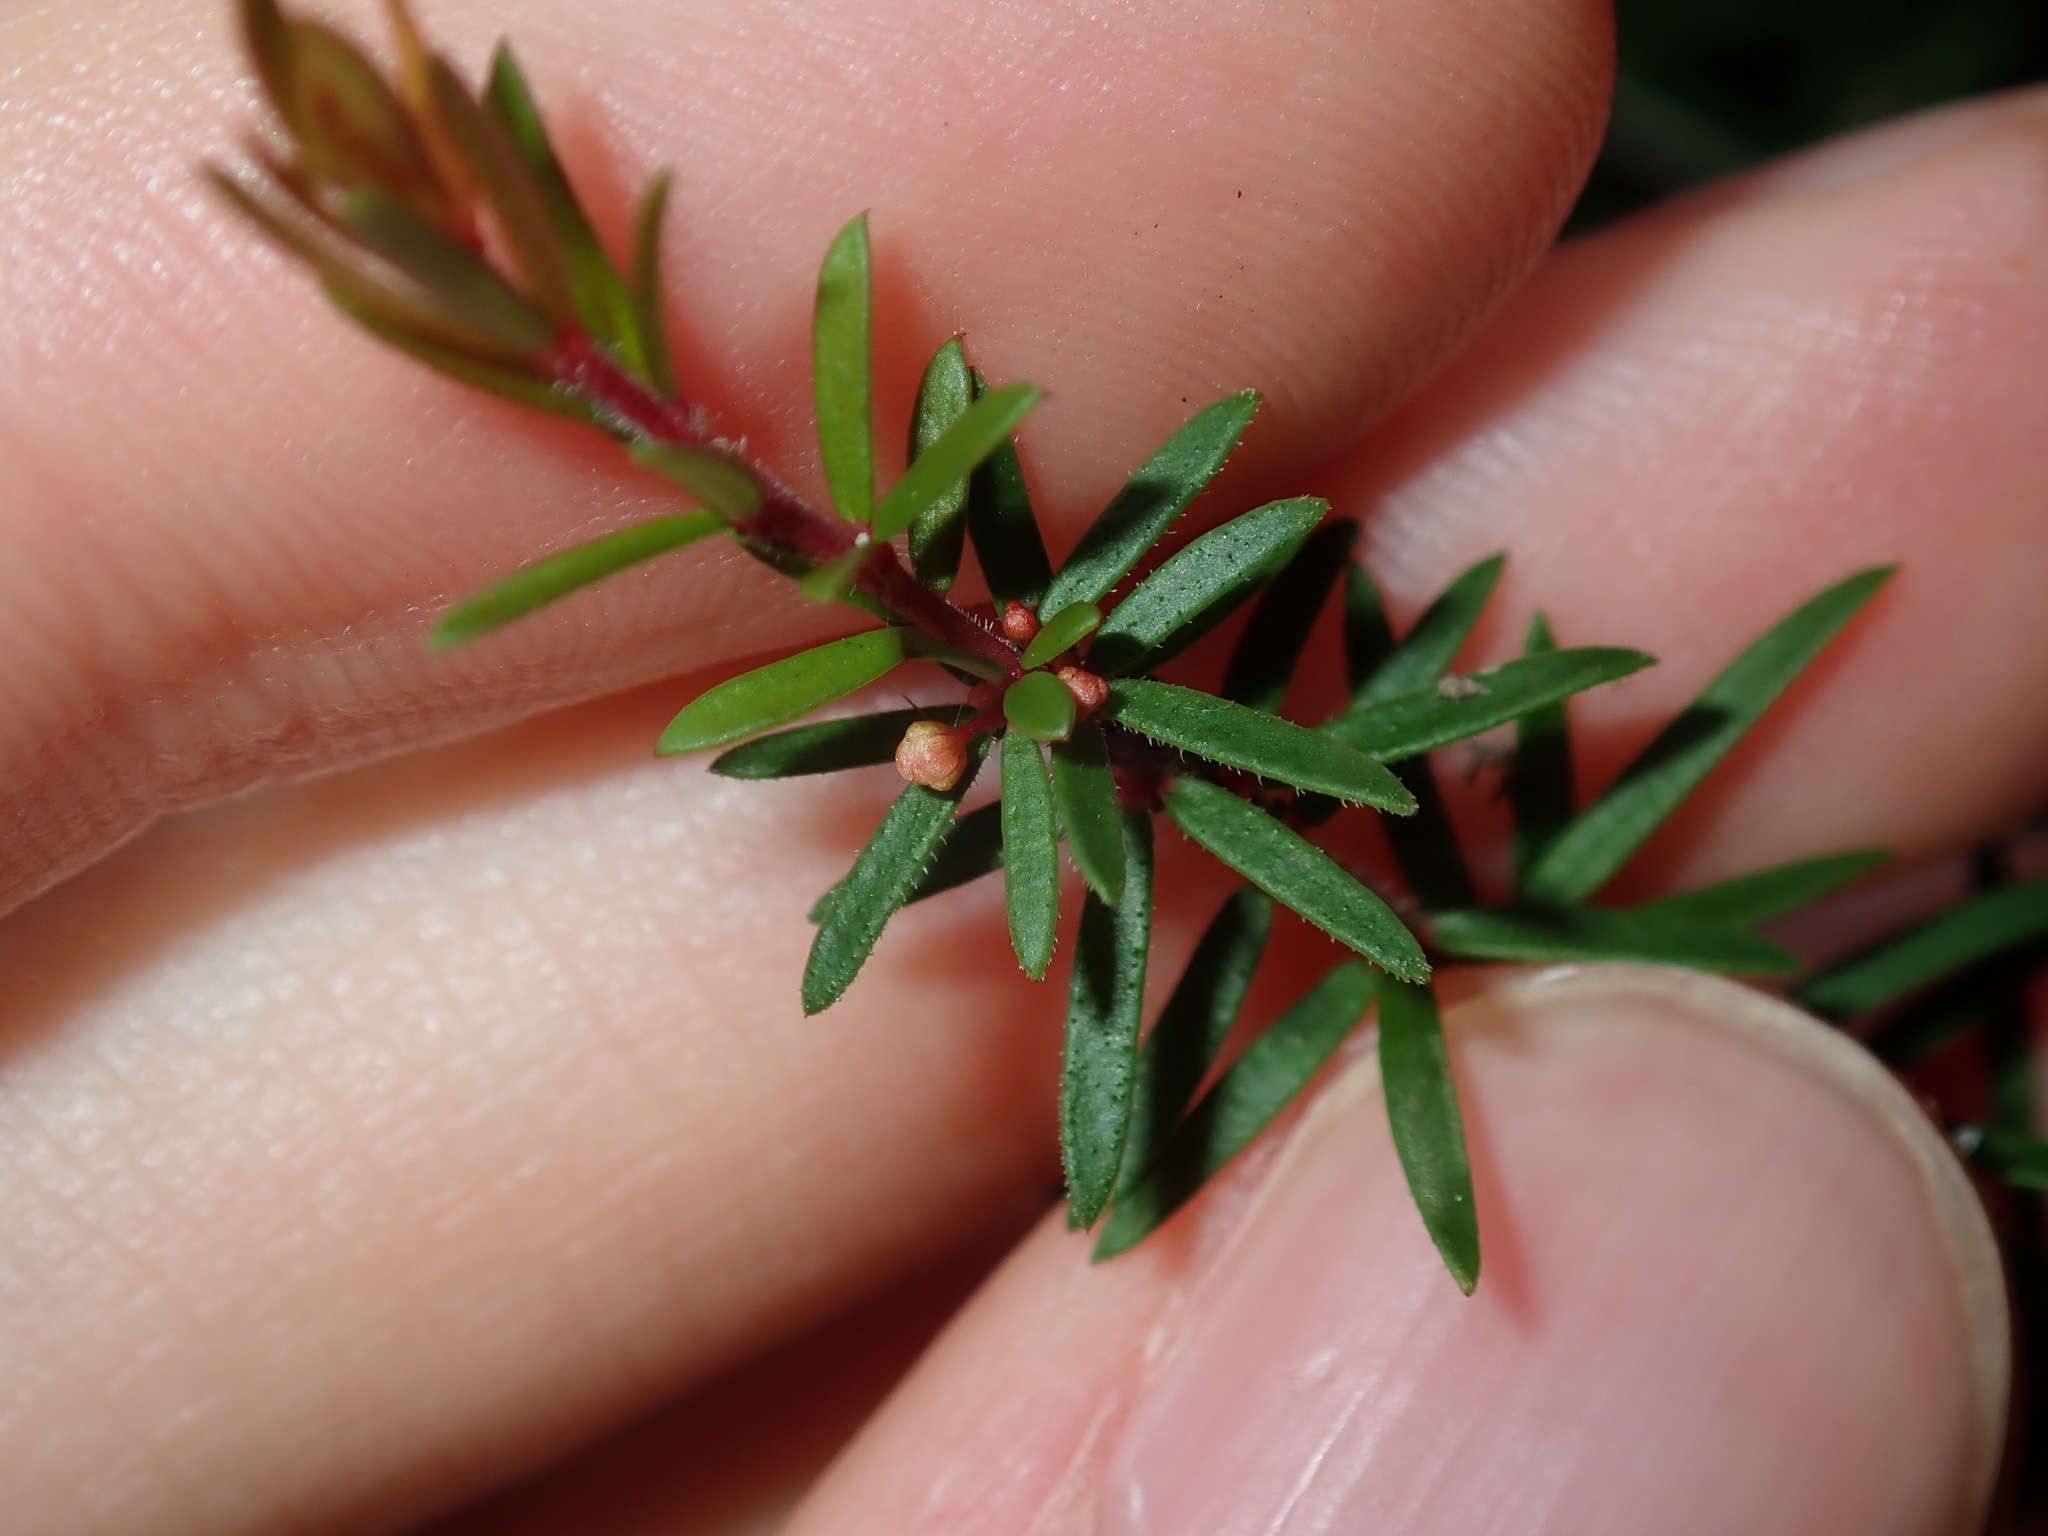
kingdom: Plantae
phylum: Tracheophyta
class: Magnoliopsida
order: Malpighiales
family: Picrodendraceae
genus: Micrantheum
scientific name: Micrantheum ericoides
